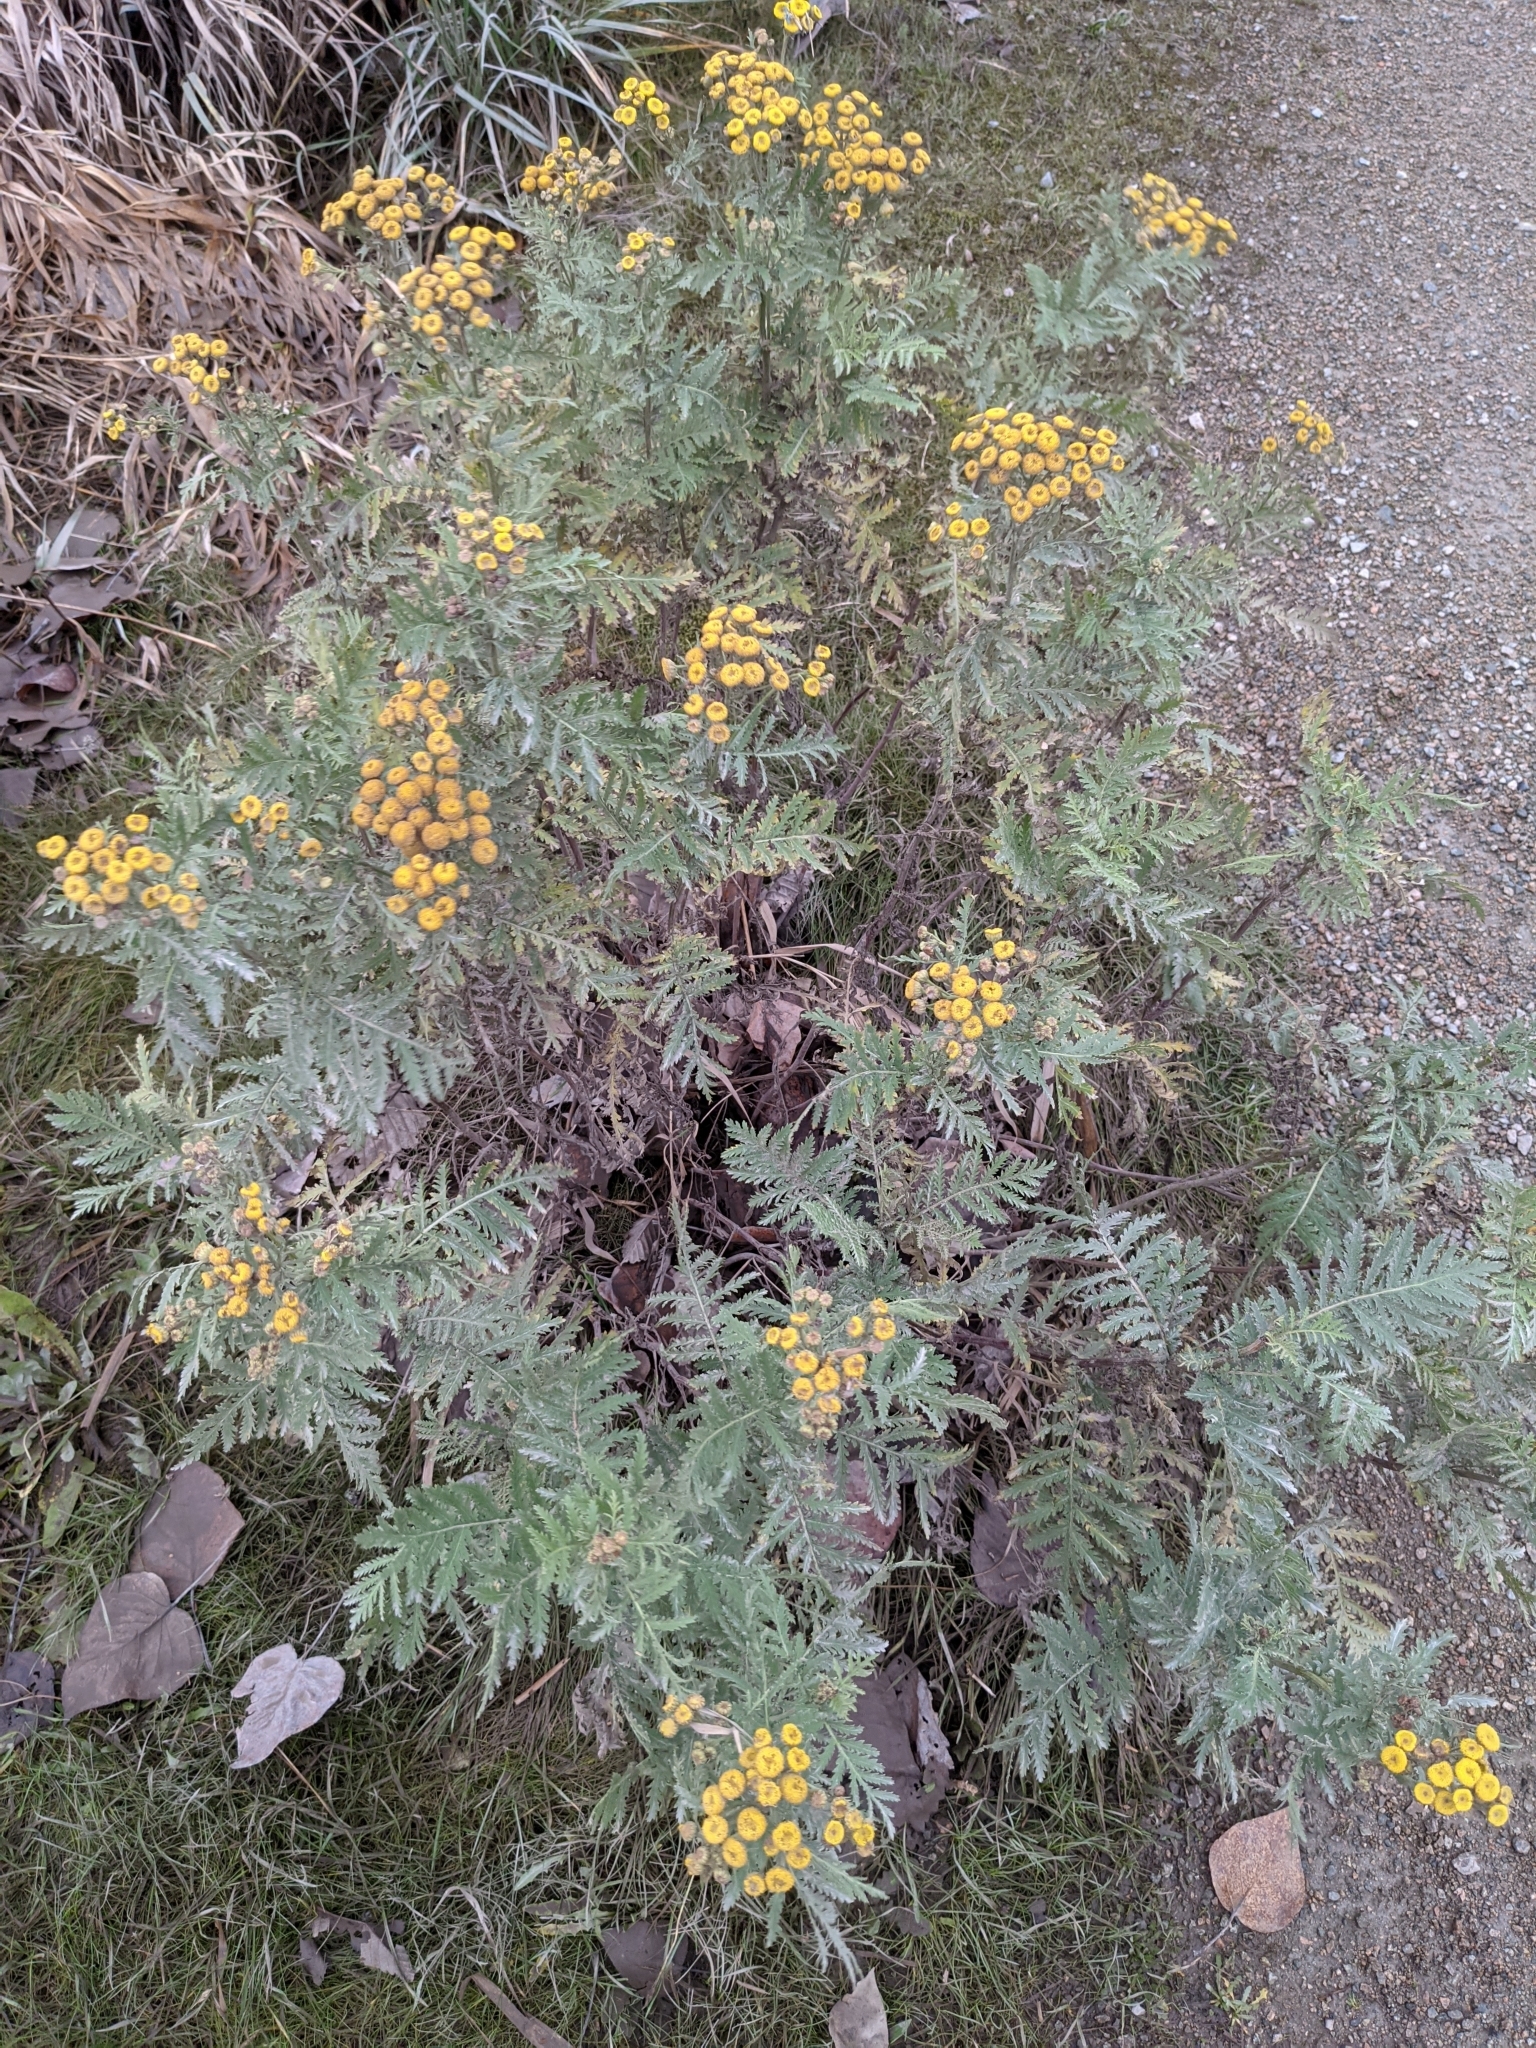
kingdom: Plantae
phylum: Tracheophyta
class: Magnoliopsida
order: Asterales
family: Asteraceae
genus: Tanacetum
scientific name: Tanacetum vulgare
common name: Common tansy
